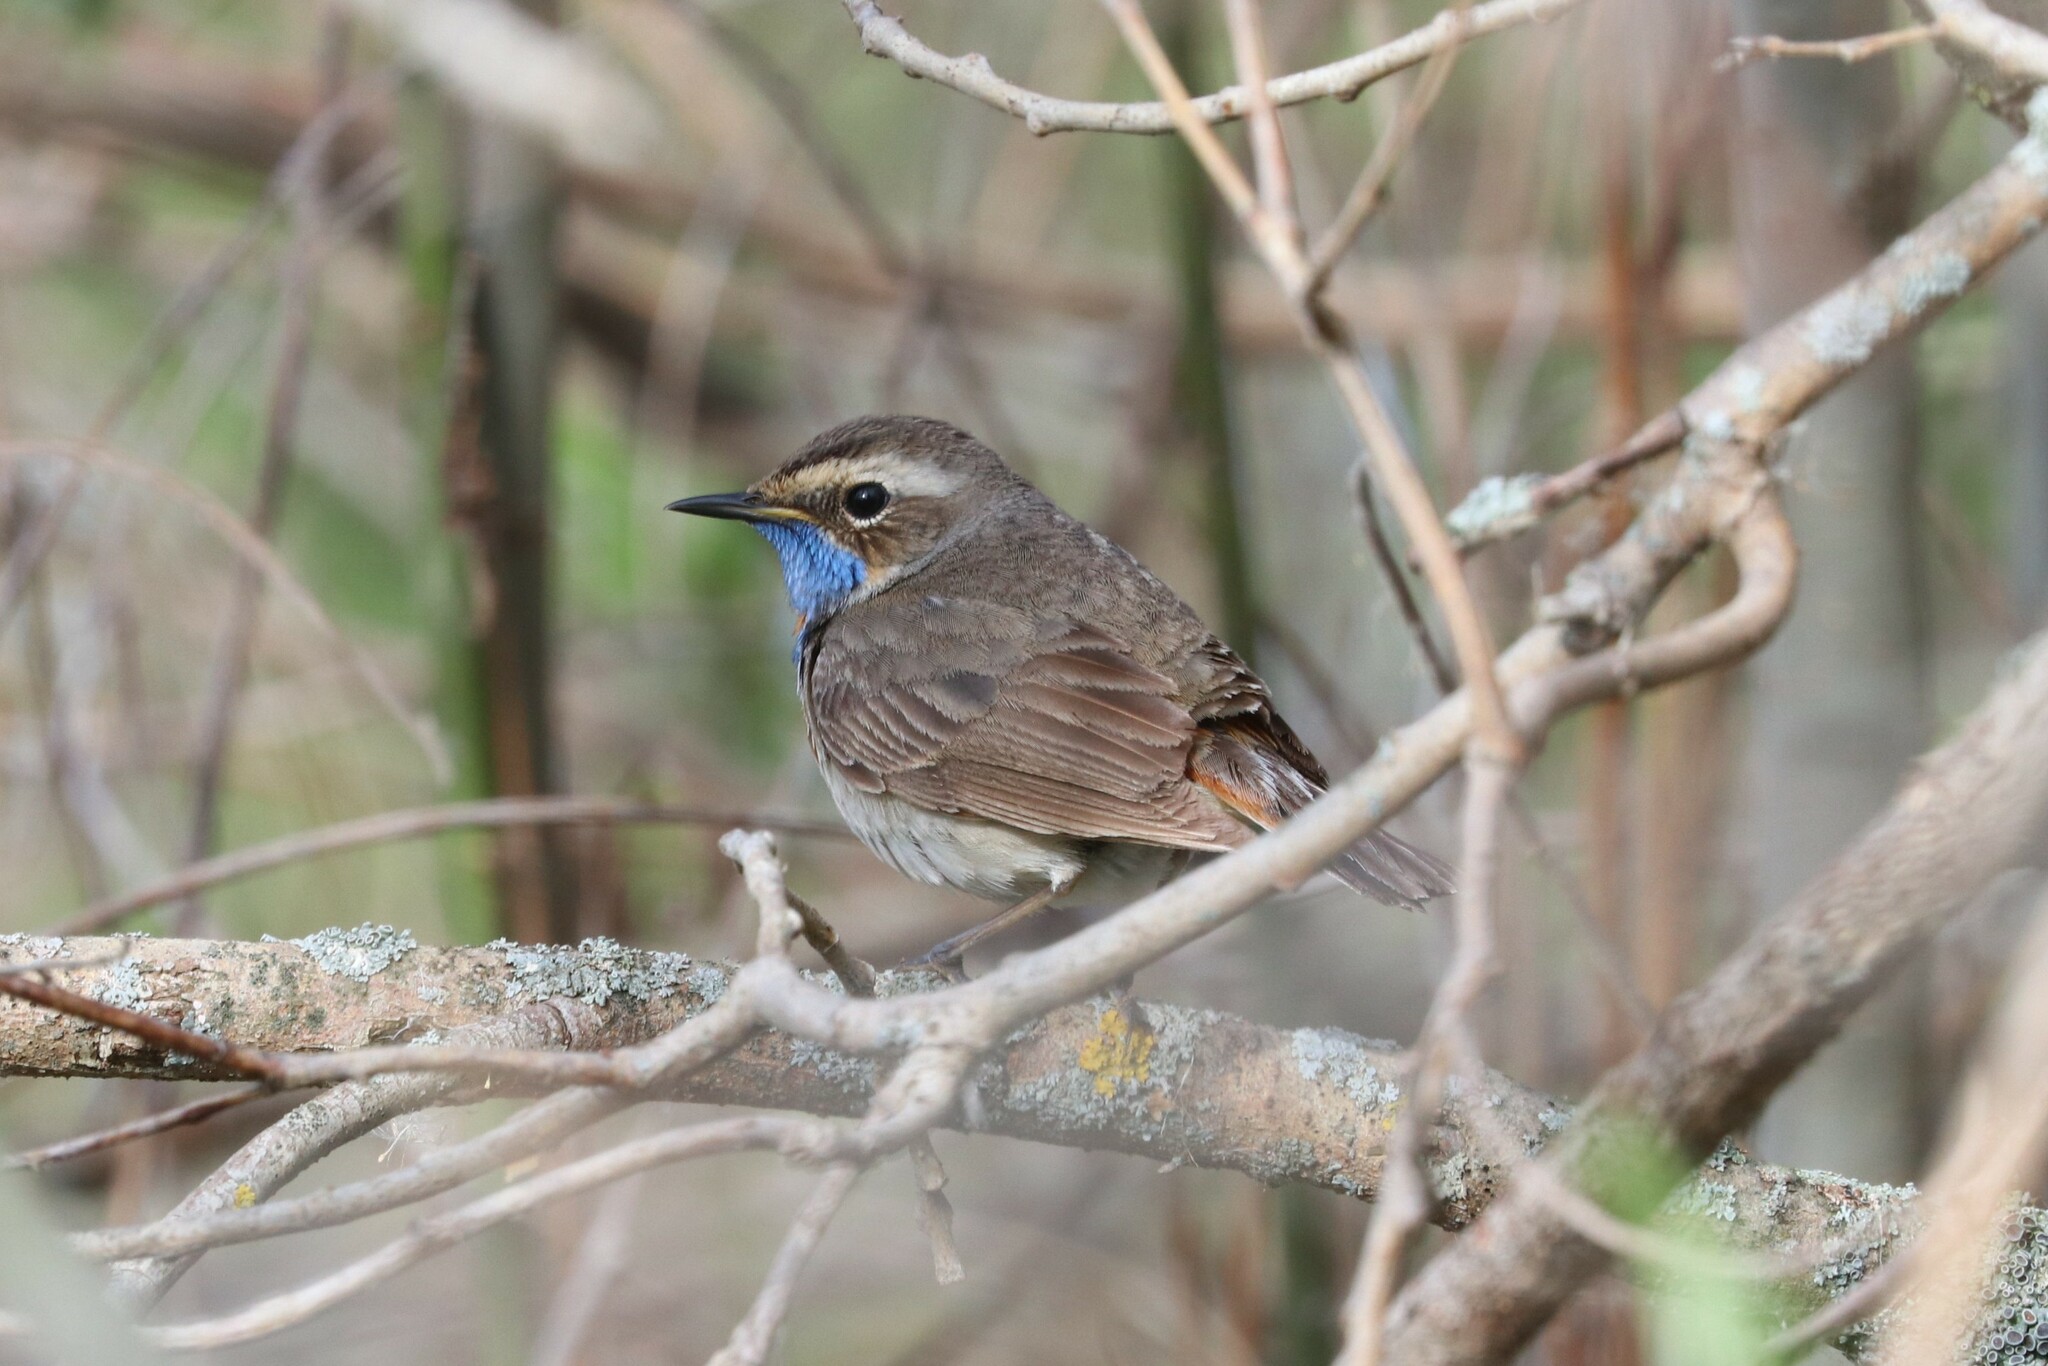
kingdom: Animalia
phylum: Chordata
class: Aves
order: Passeriformes
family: Muscicapidae
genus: Luscinia
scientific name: Luscinia svecica
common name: Bluethroat
